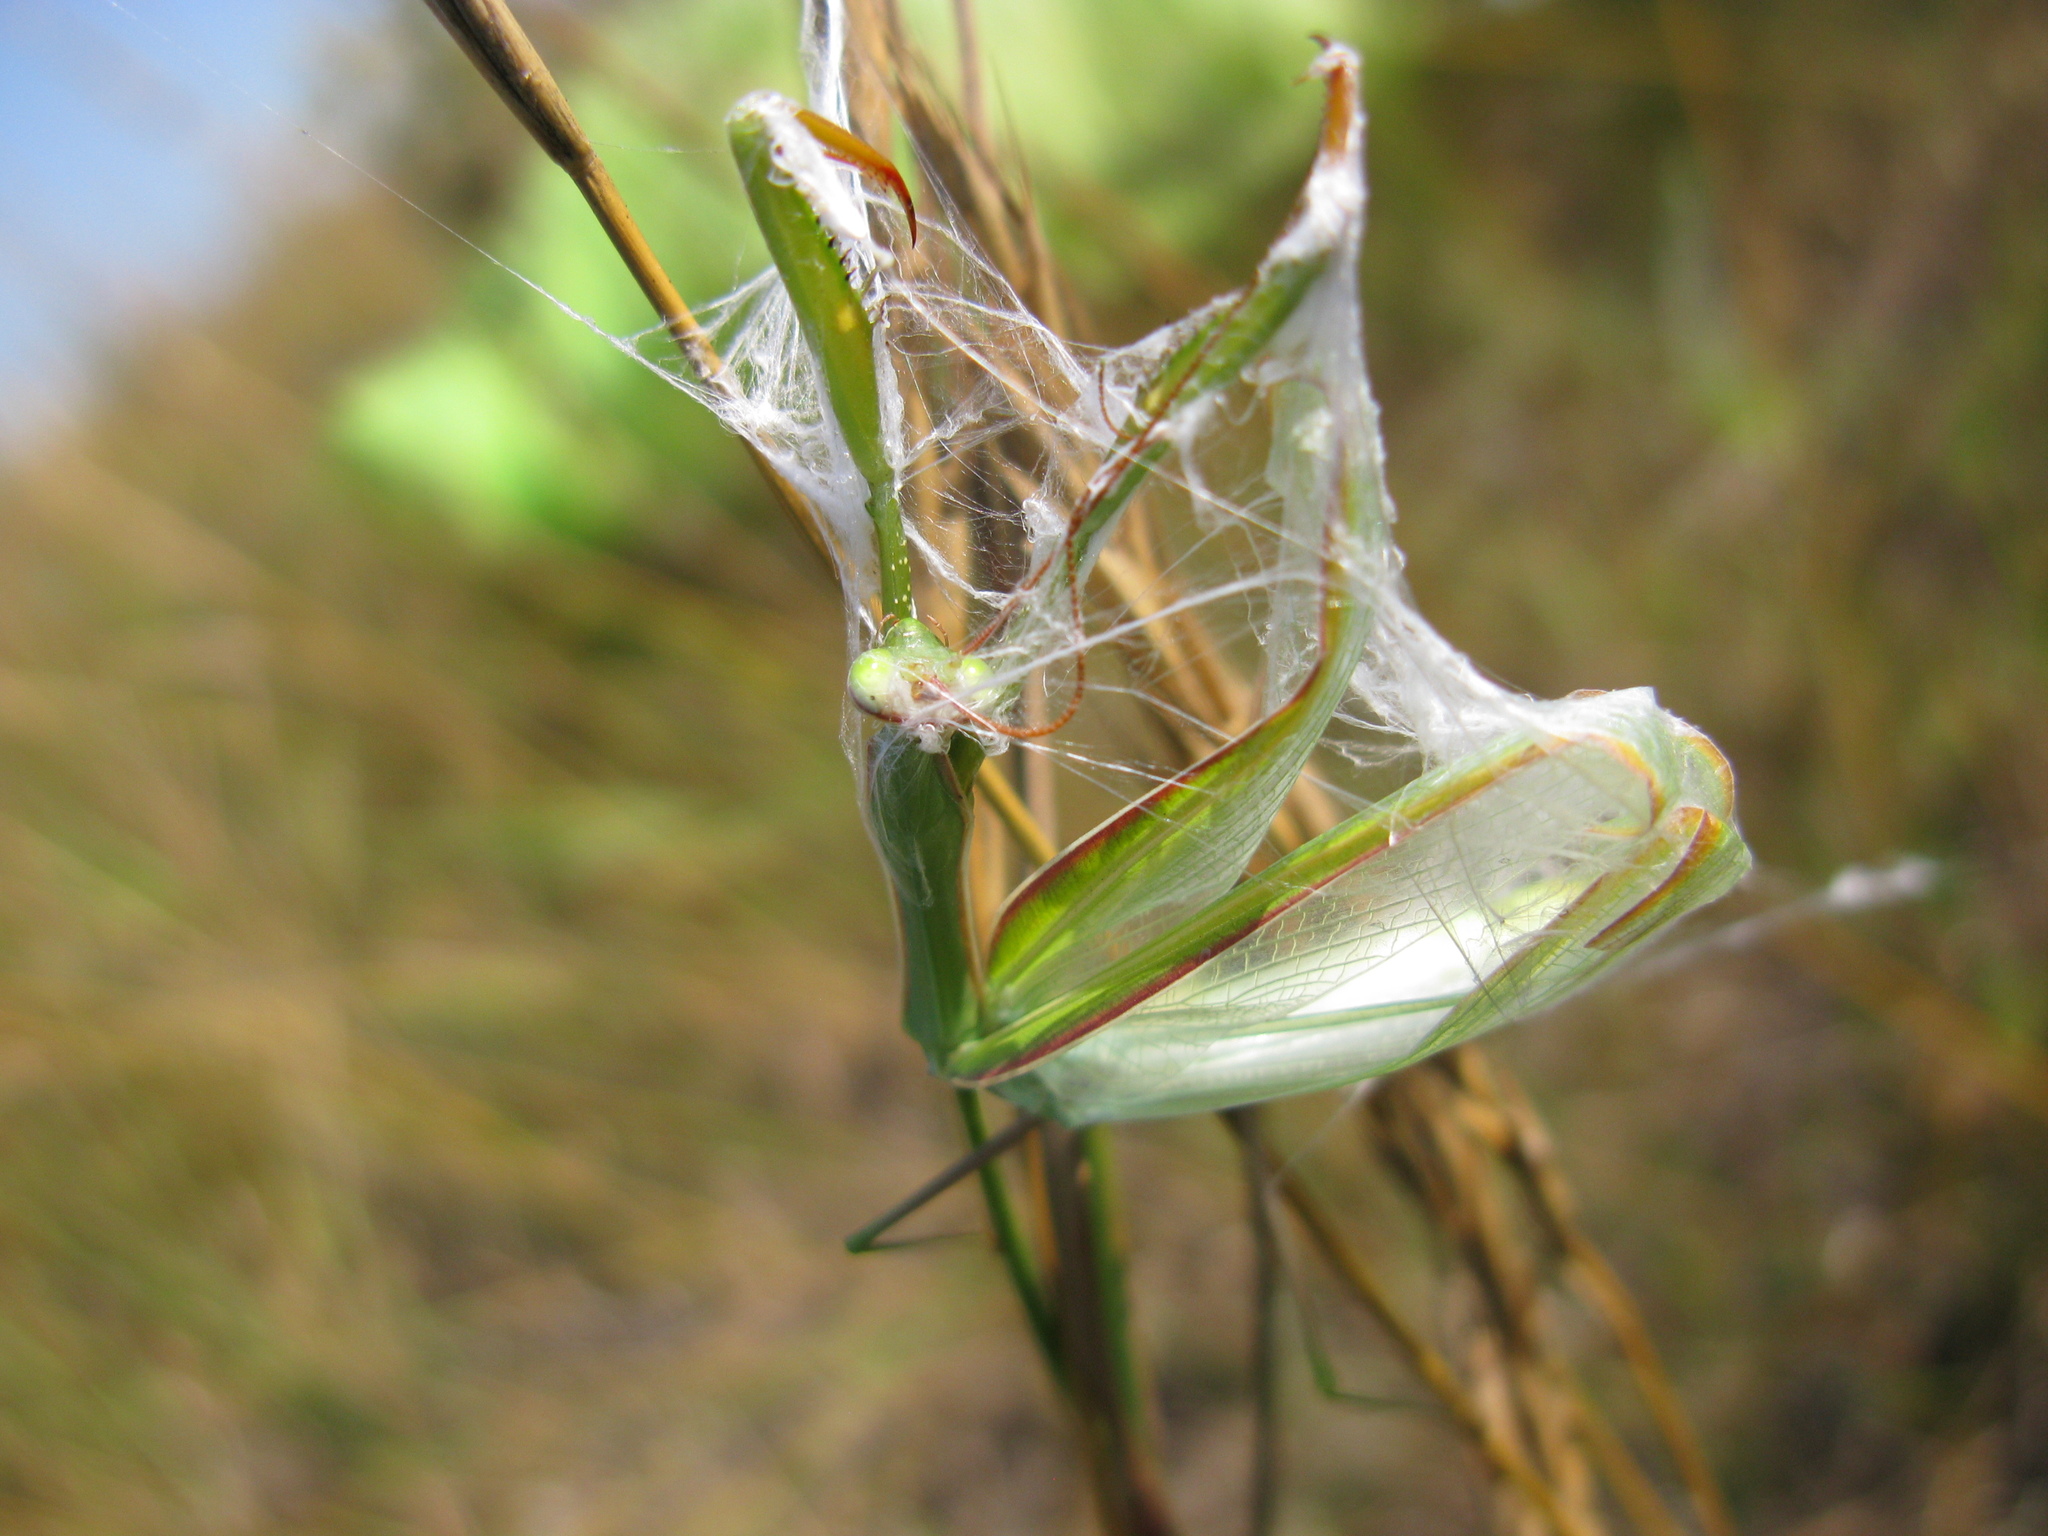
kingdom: Animalia
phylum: Arthropoda
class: Insecta
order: Mantodea
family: Mantidae
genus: Mantis
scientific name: Mantis religiosa
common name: Praying mantis
